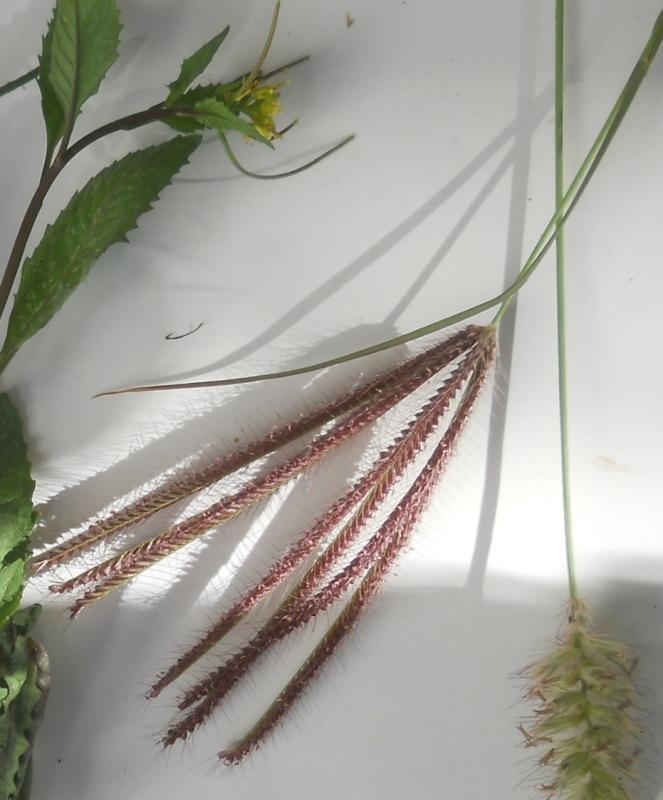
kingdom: Plantae
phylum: Tracheophyta
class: Liliopsida
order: Poales
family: Poaceae
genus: Chloris
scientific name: Chloris barbata
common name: Swollen fingergrass
